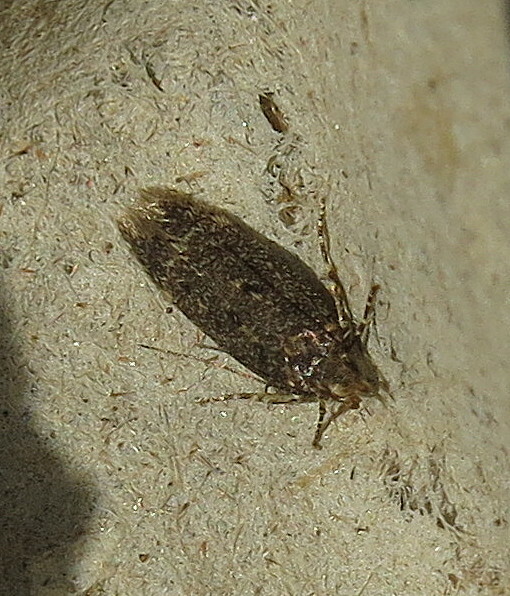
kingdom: Animalia
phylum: Arthropoda
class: Insecta
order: Lepidoptera
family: Gelechiidae
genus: Bryotropha
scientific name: Bryotropha affinis
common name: Dark groundling
